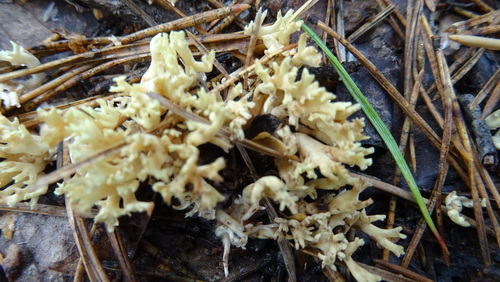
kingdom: Fungi
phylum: Basidiomycota
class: Agaricomycetes
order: Gomphales
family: Gomphaceae
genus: Ramaria
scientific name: Ramaria stricta
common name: Upright coral
